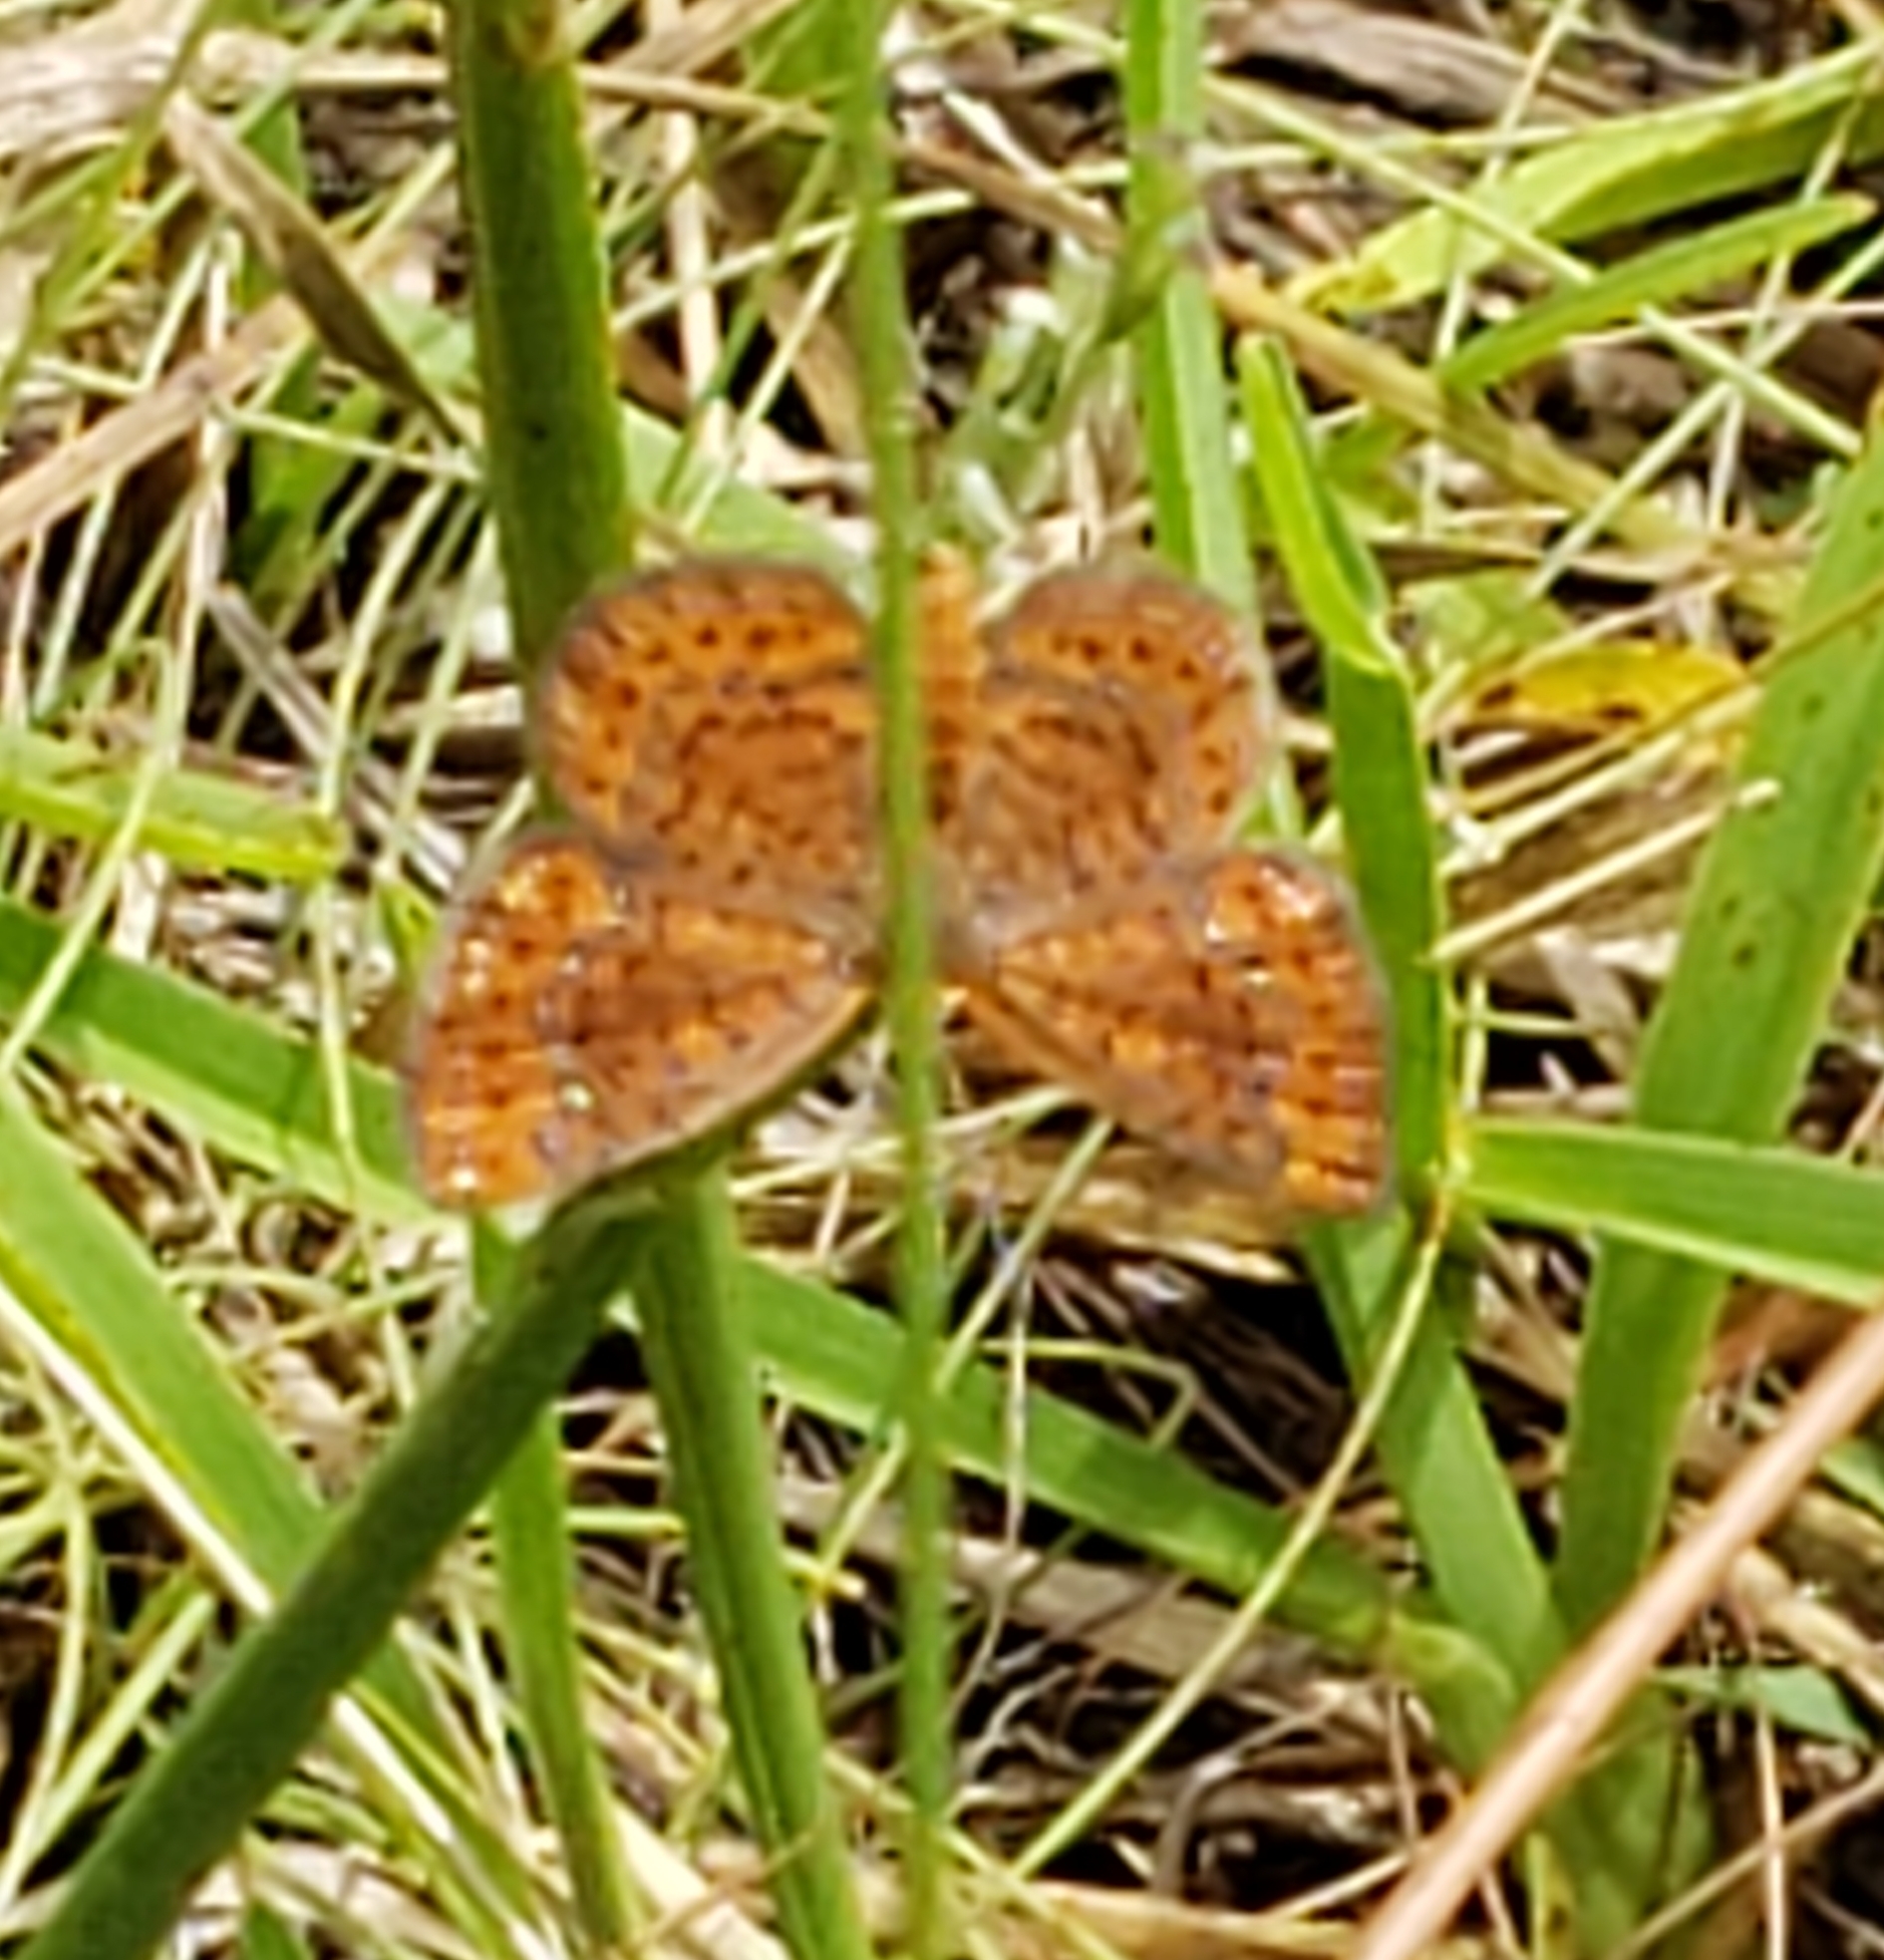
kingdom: Animalia
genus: Calephelis
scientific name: Calephelis virginiensis
